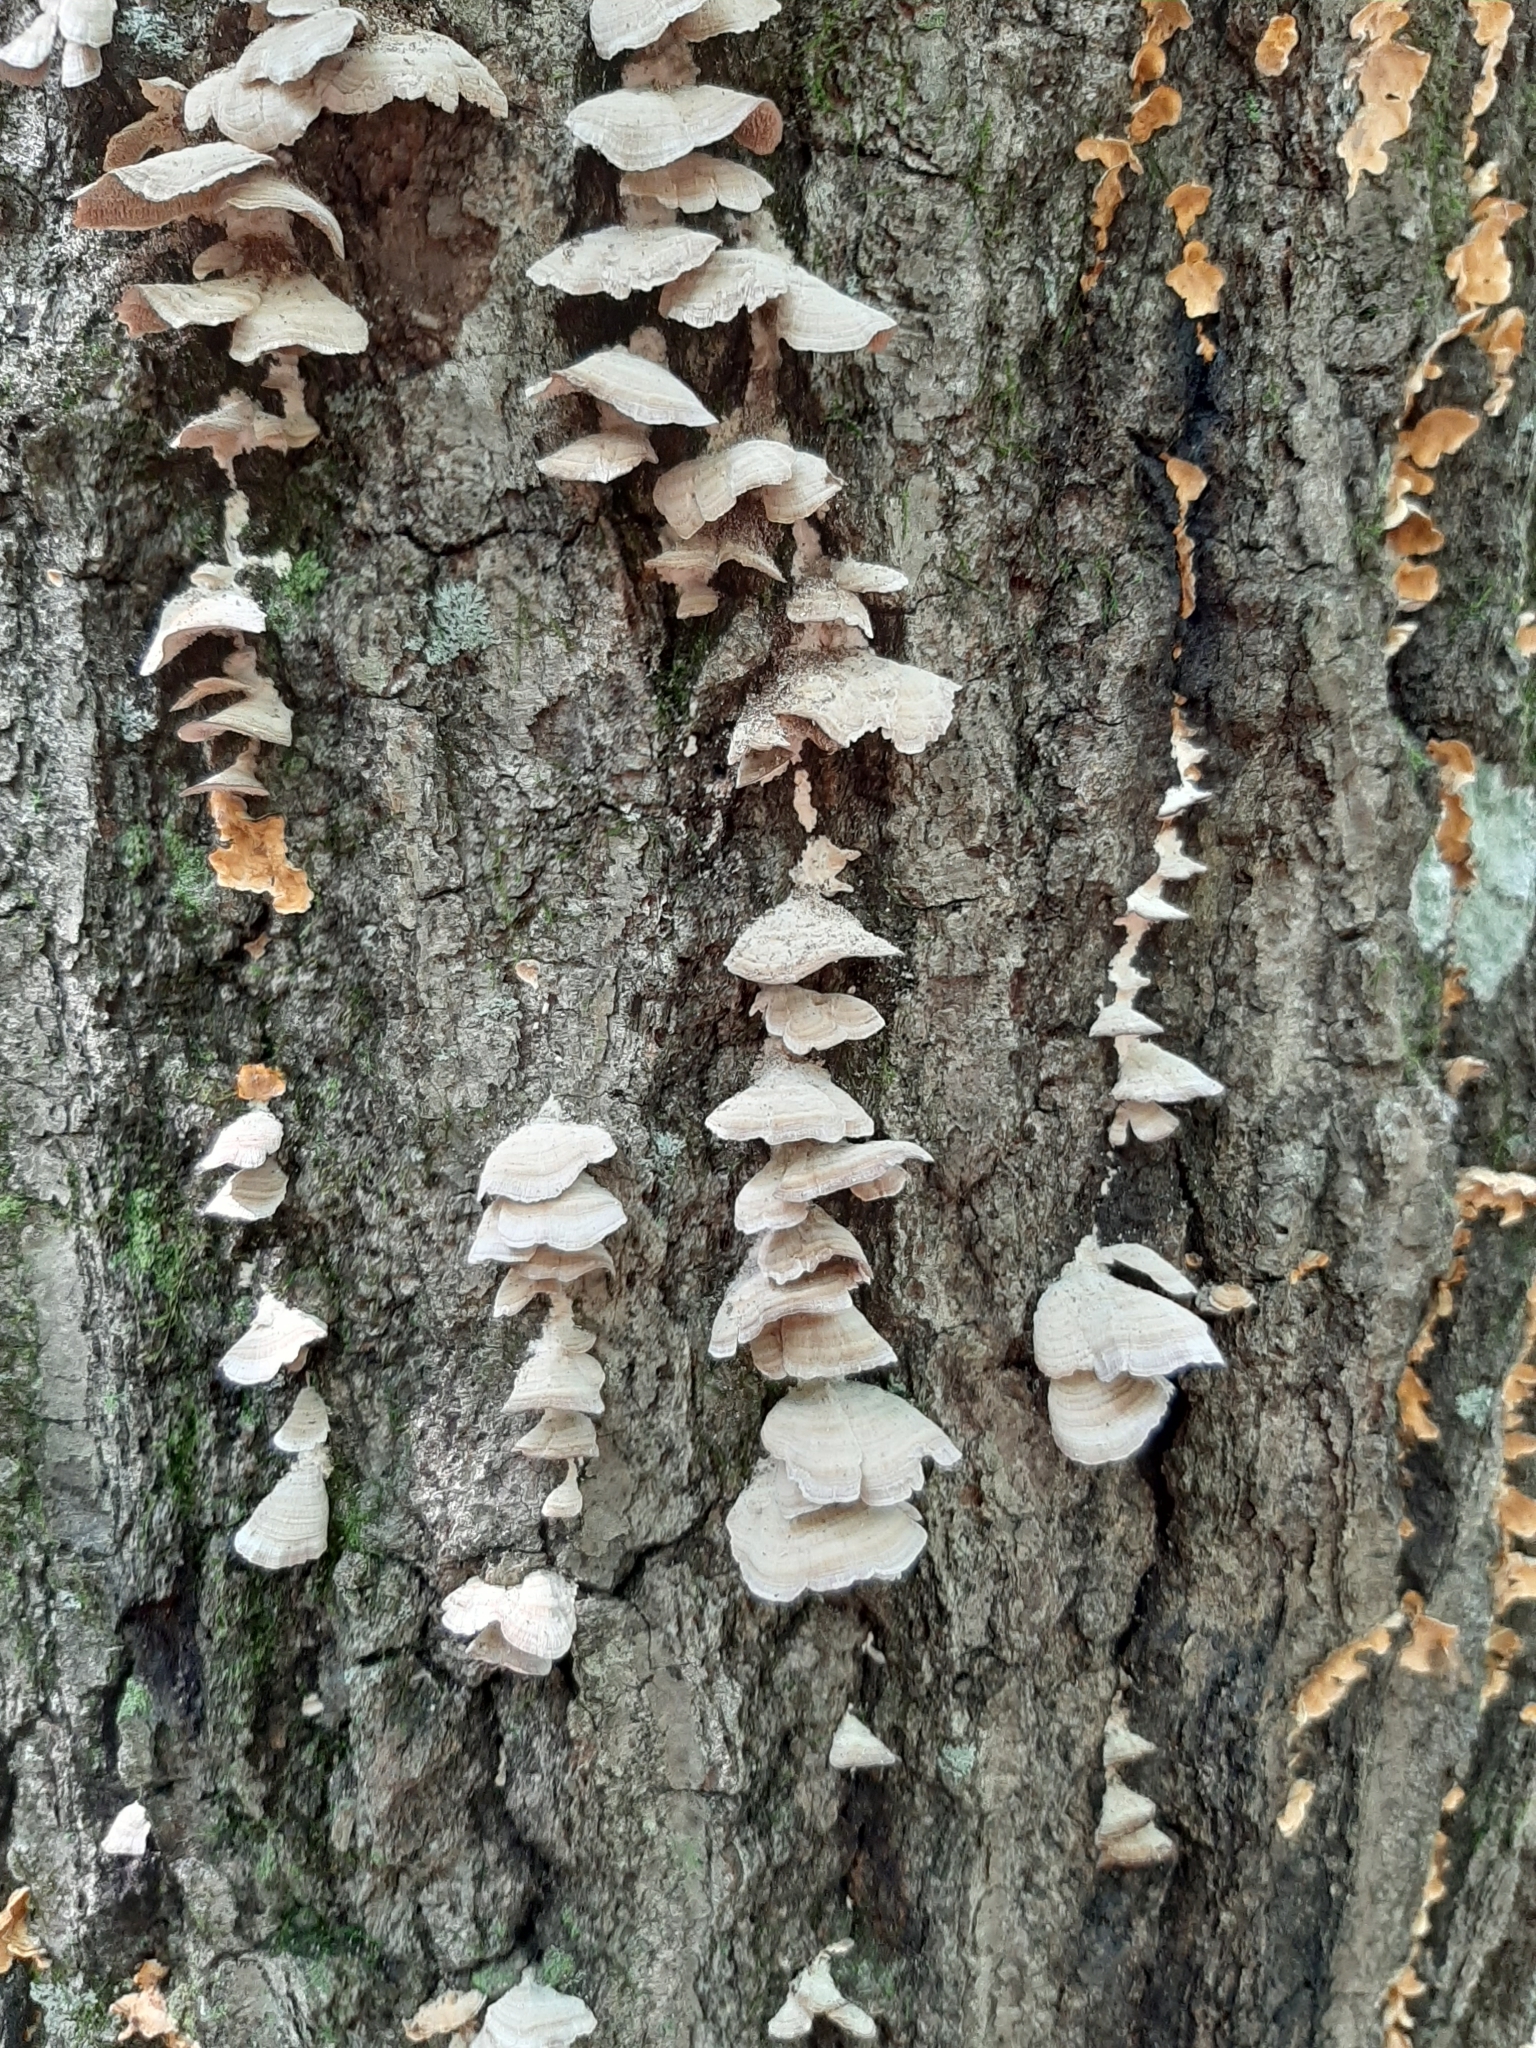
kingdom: Fungi
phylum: Basidiomycota
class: Agaricomycetes
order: Hymenochaetales
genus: Trichaptum
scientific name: Trichaptum biforme
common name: Violet-toothed polypore
